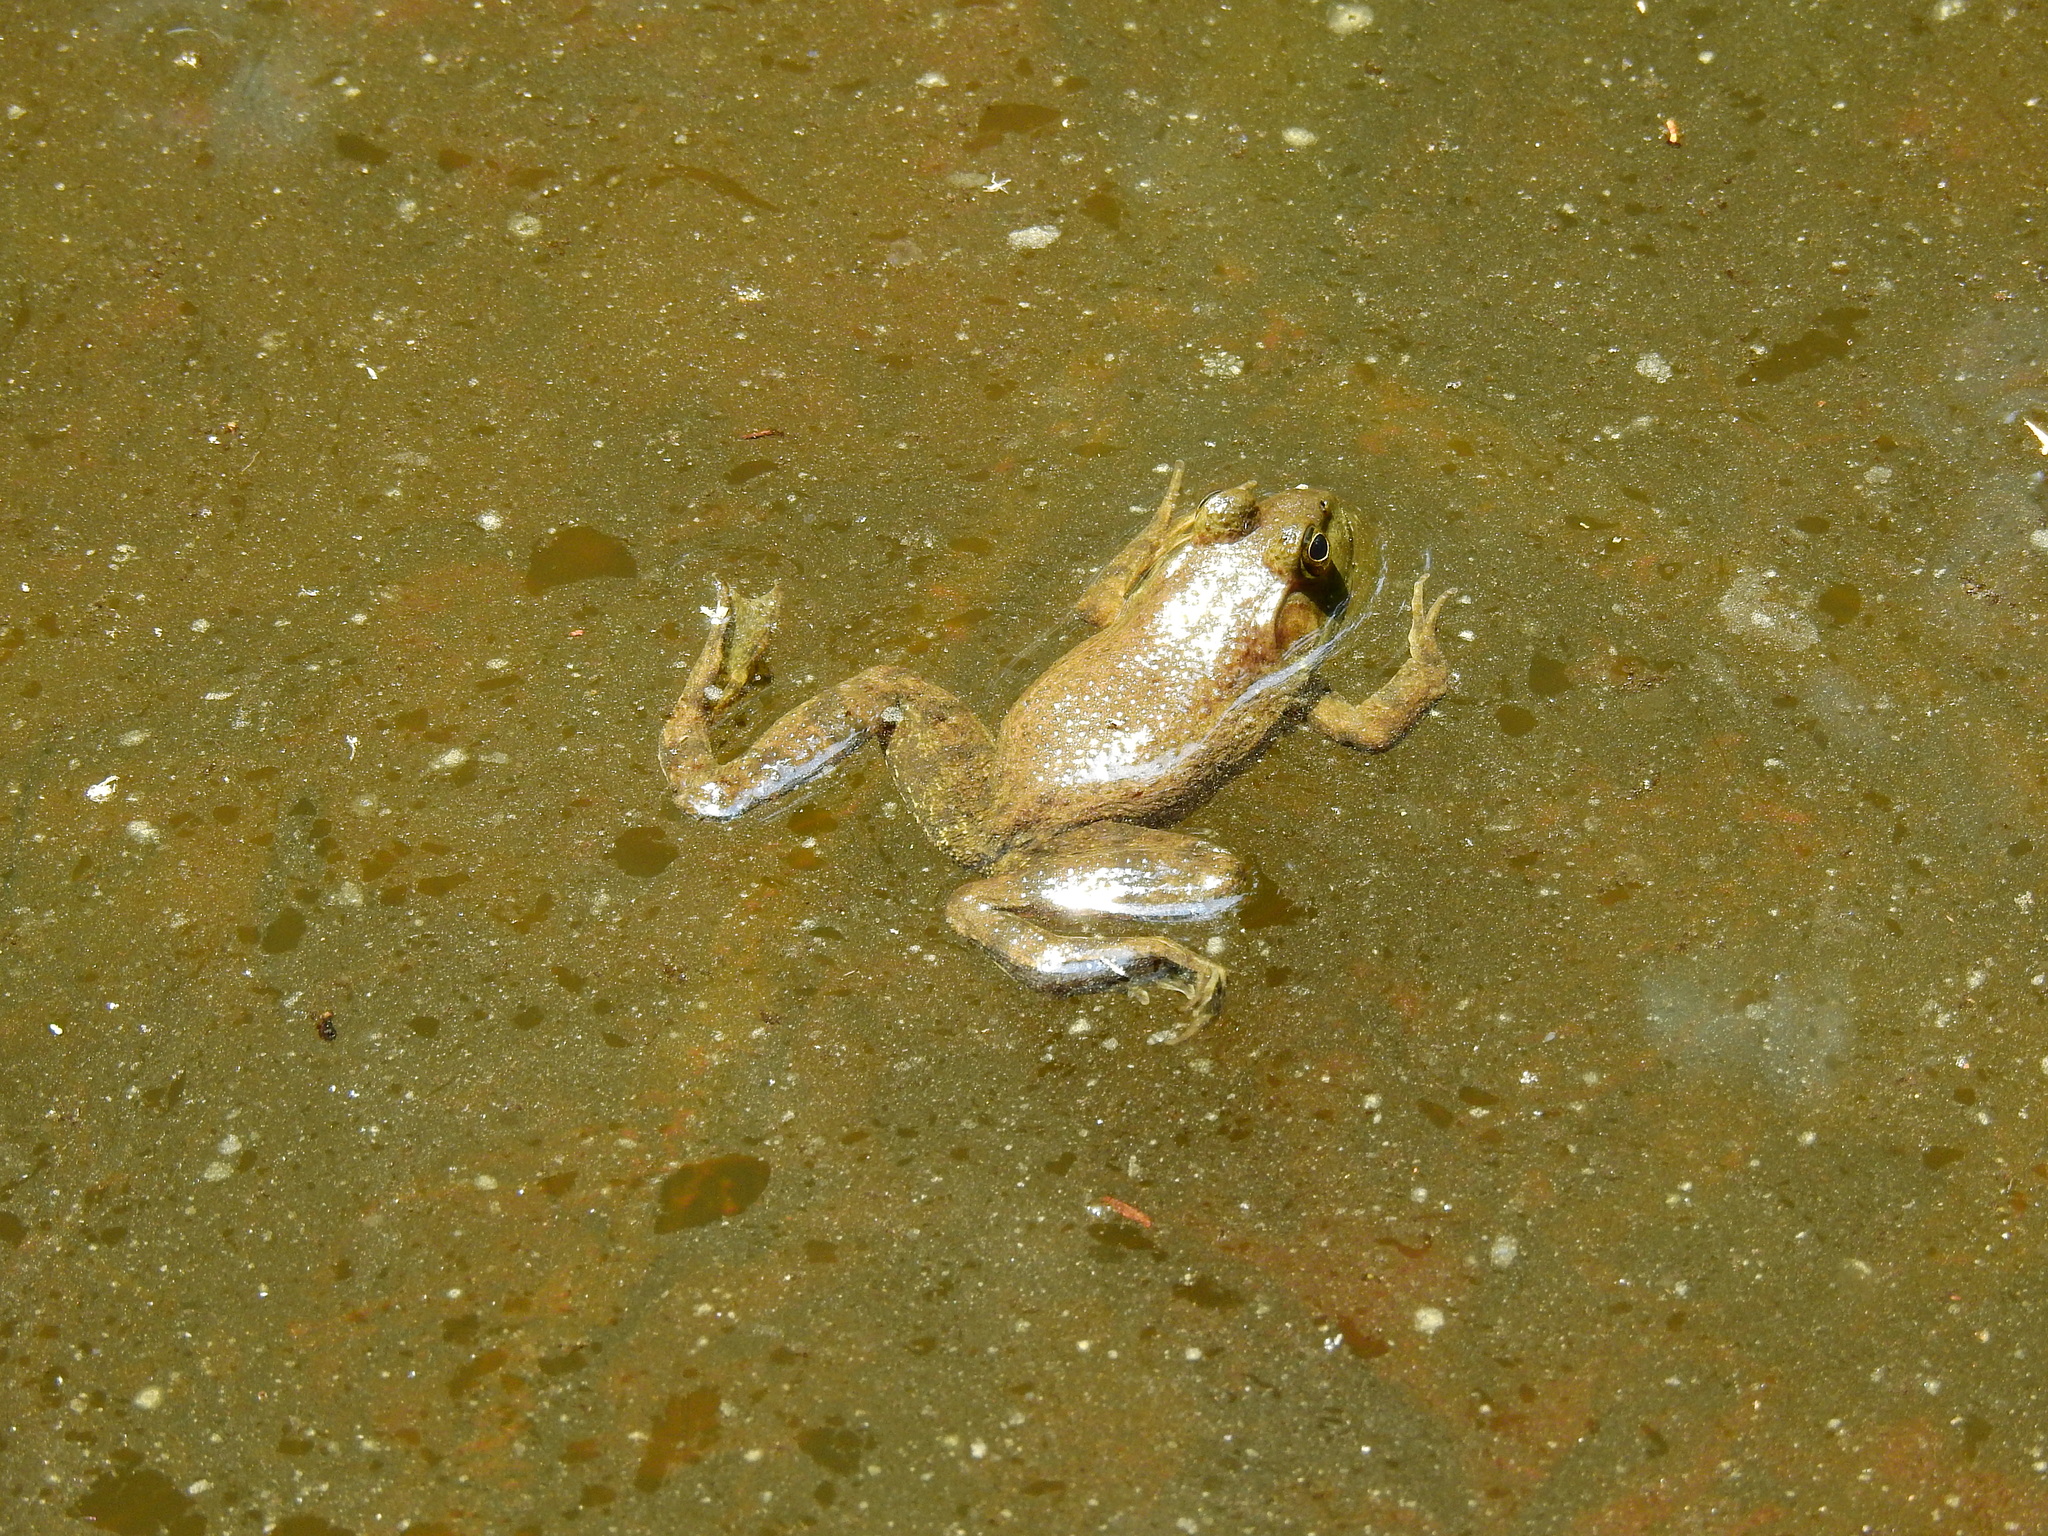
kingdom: Animalia
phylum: Chordata
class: Amphibia
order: Anura
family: Ranidae
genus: Lithobates
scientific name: Lithobates catesbeianus
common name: American bullfrog
